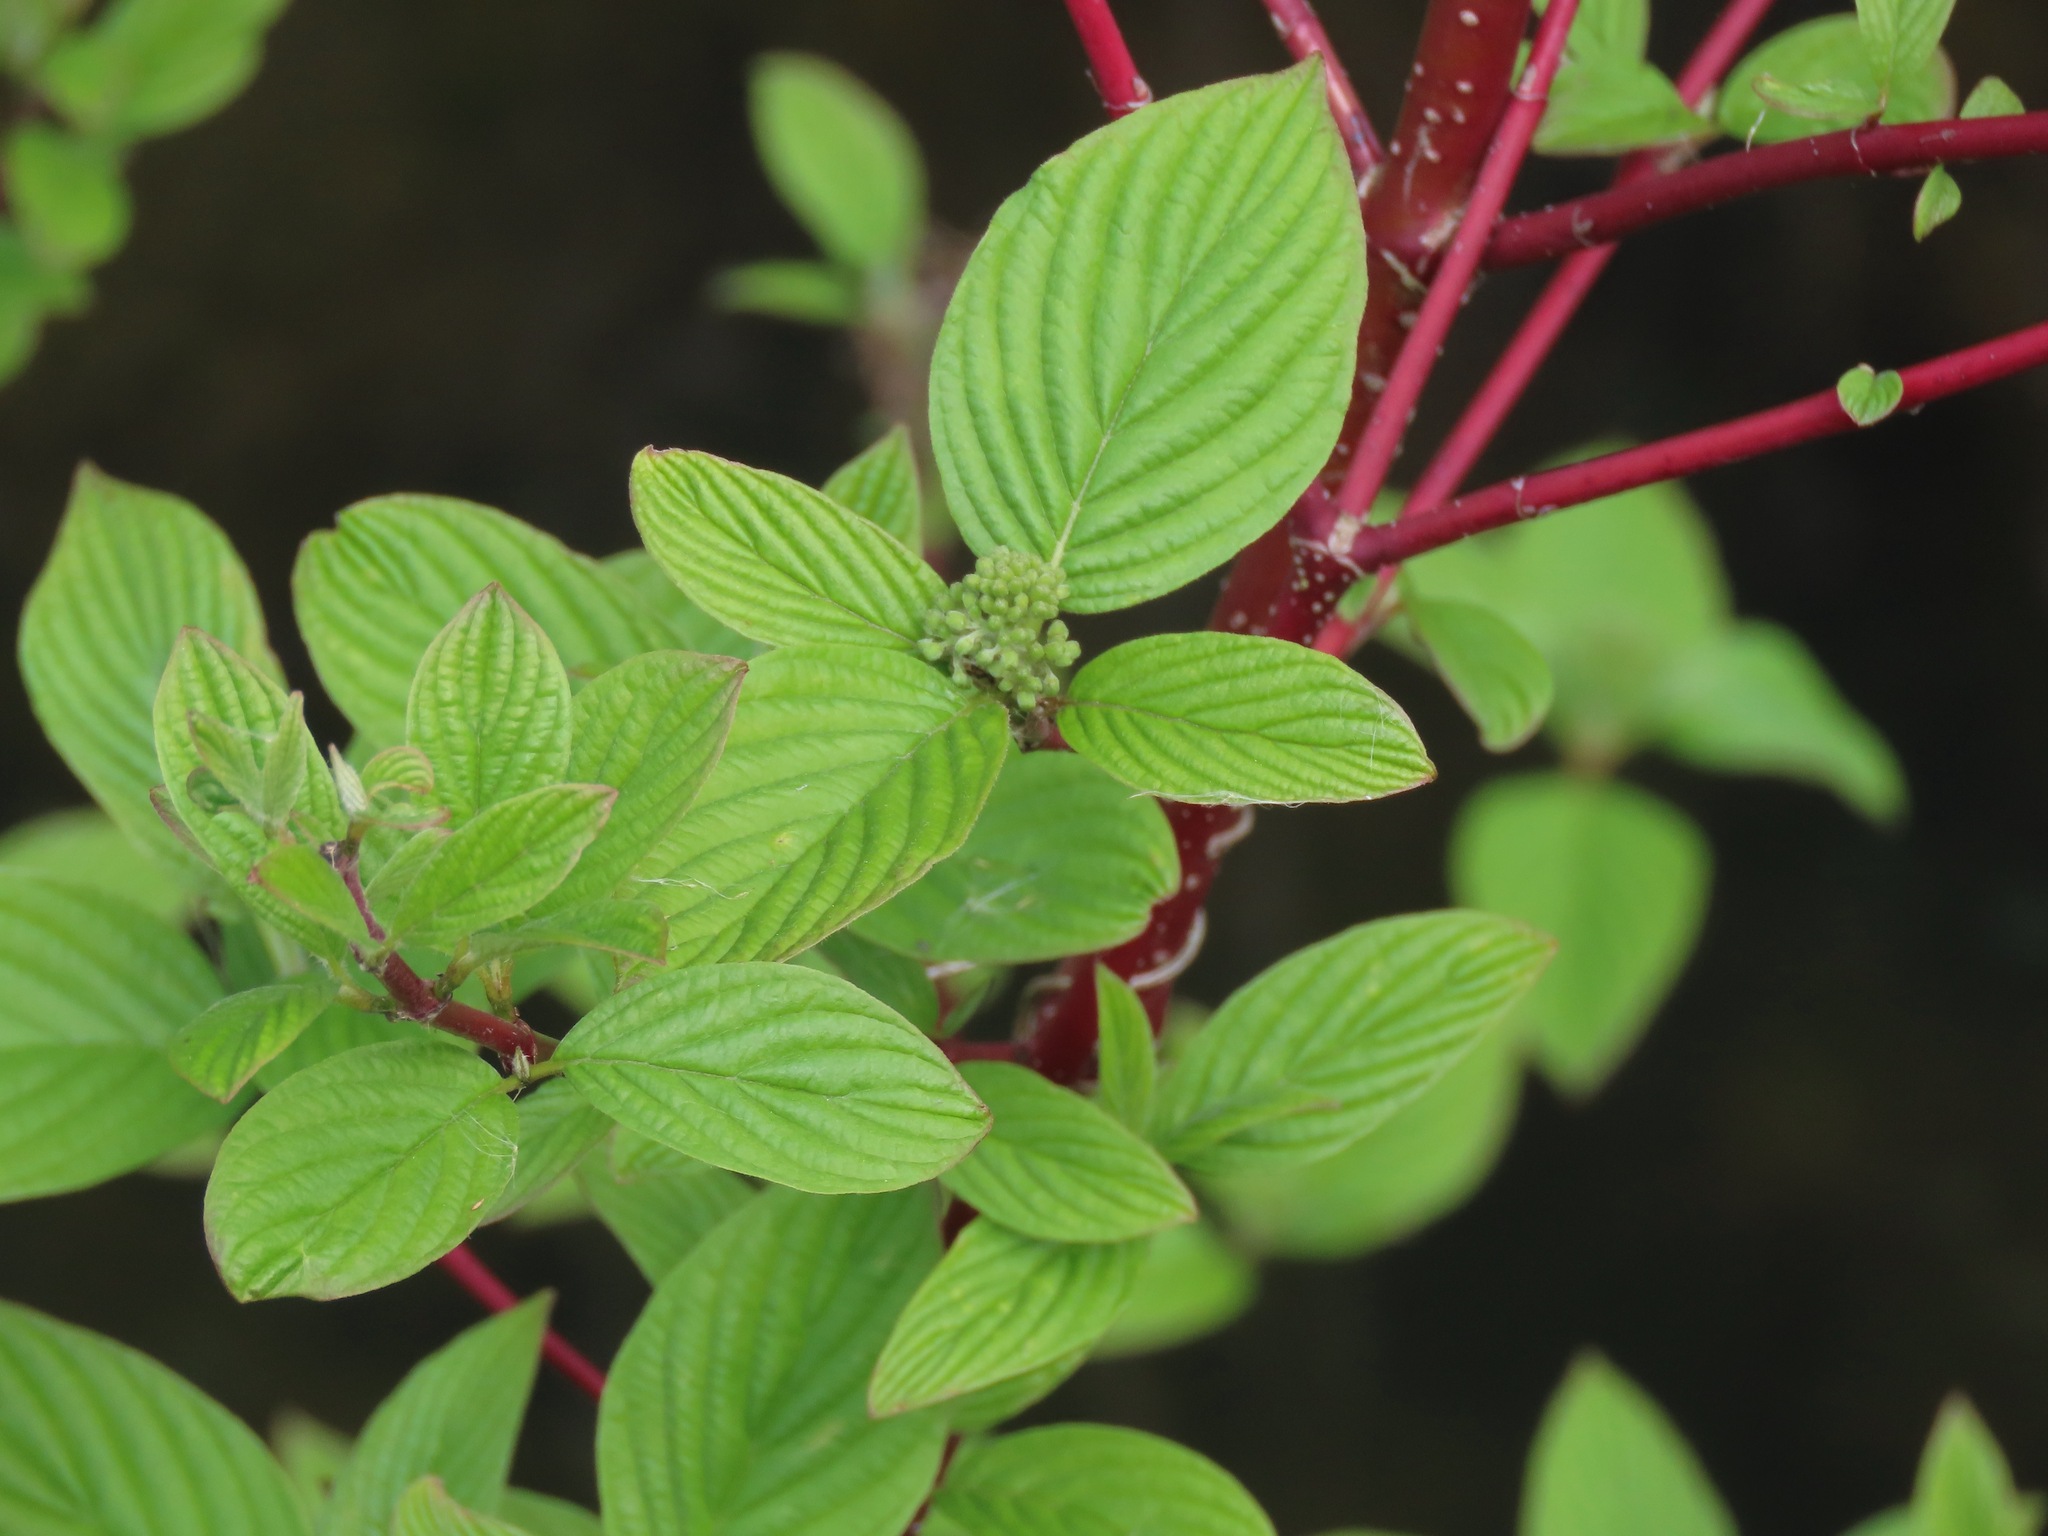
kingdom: Plantae
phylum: Tracheophyta
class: Magnoliopsida
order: Cornales
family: Cornaceae
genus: Cornus
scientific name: Cornus sericea
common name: Red-osier dogwood
